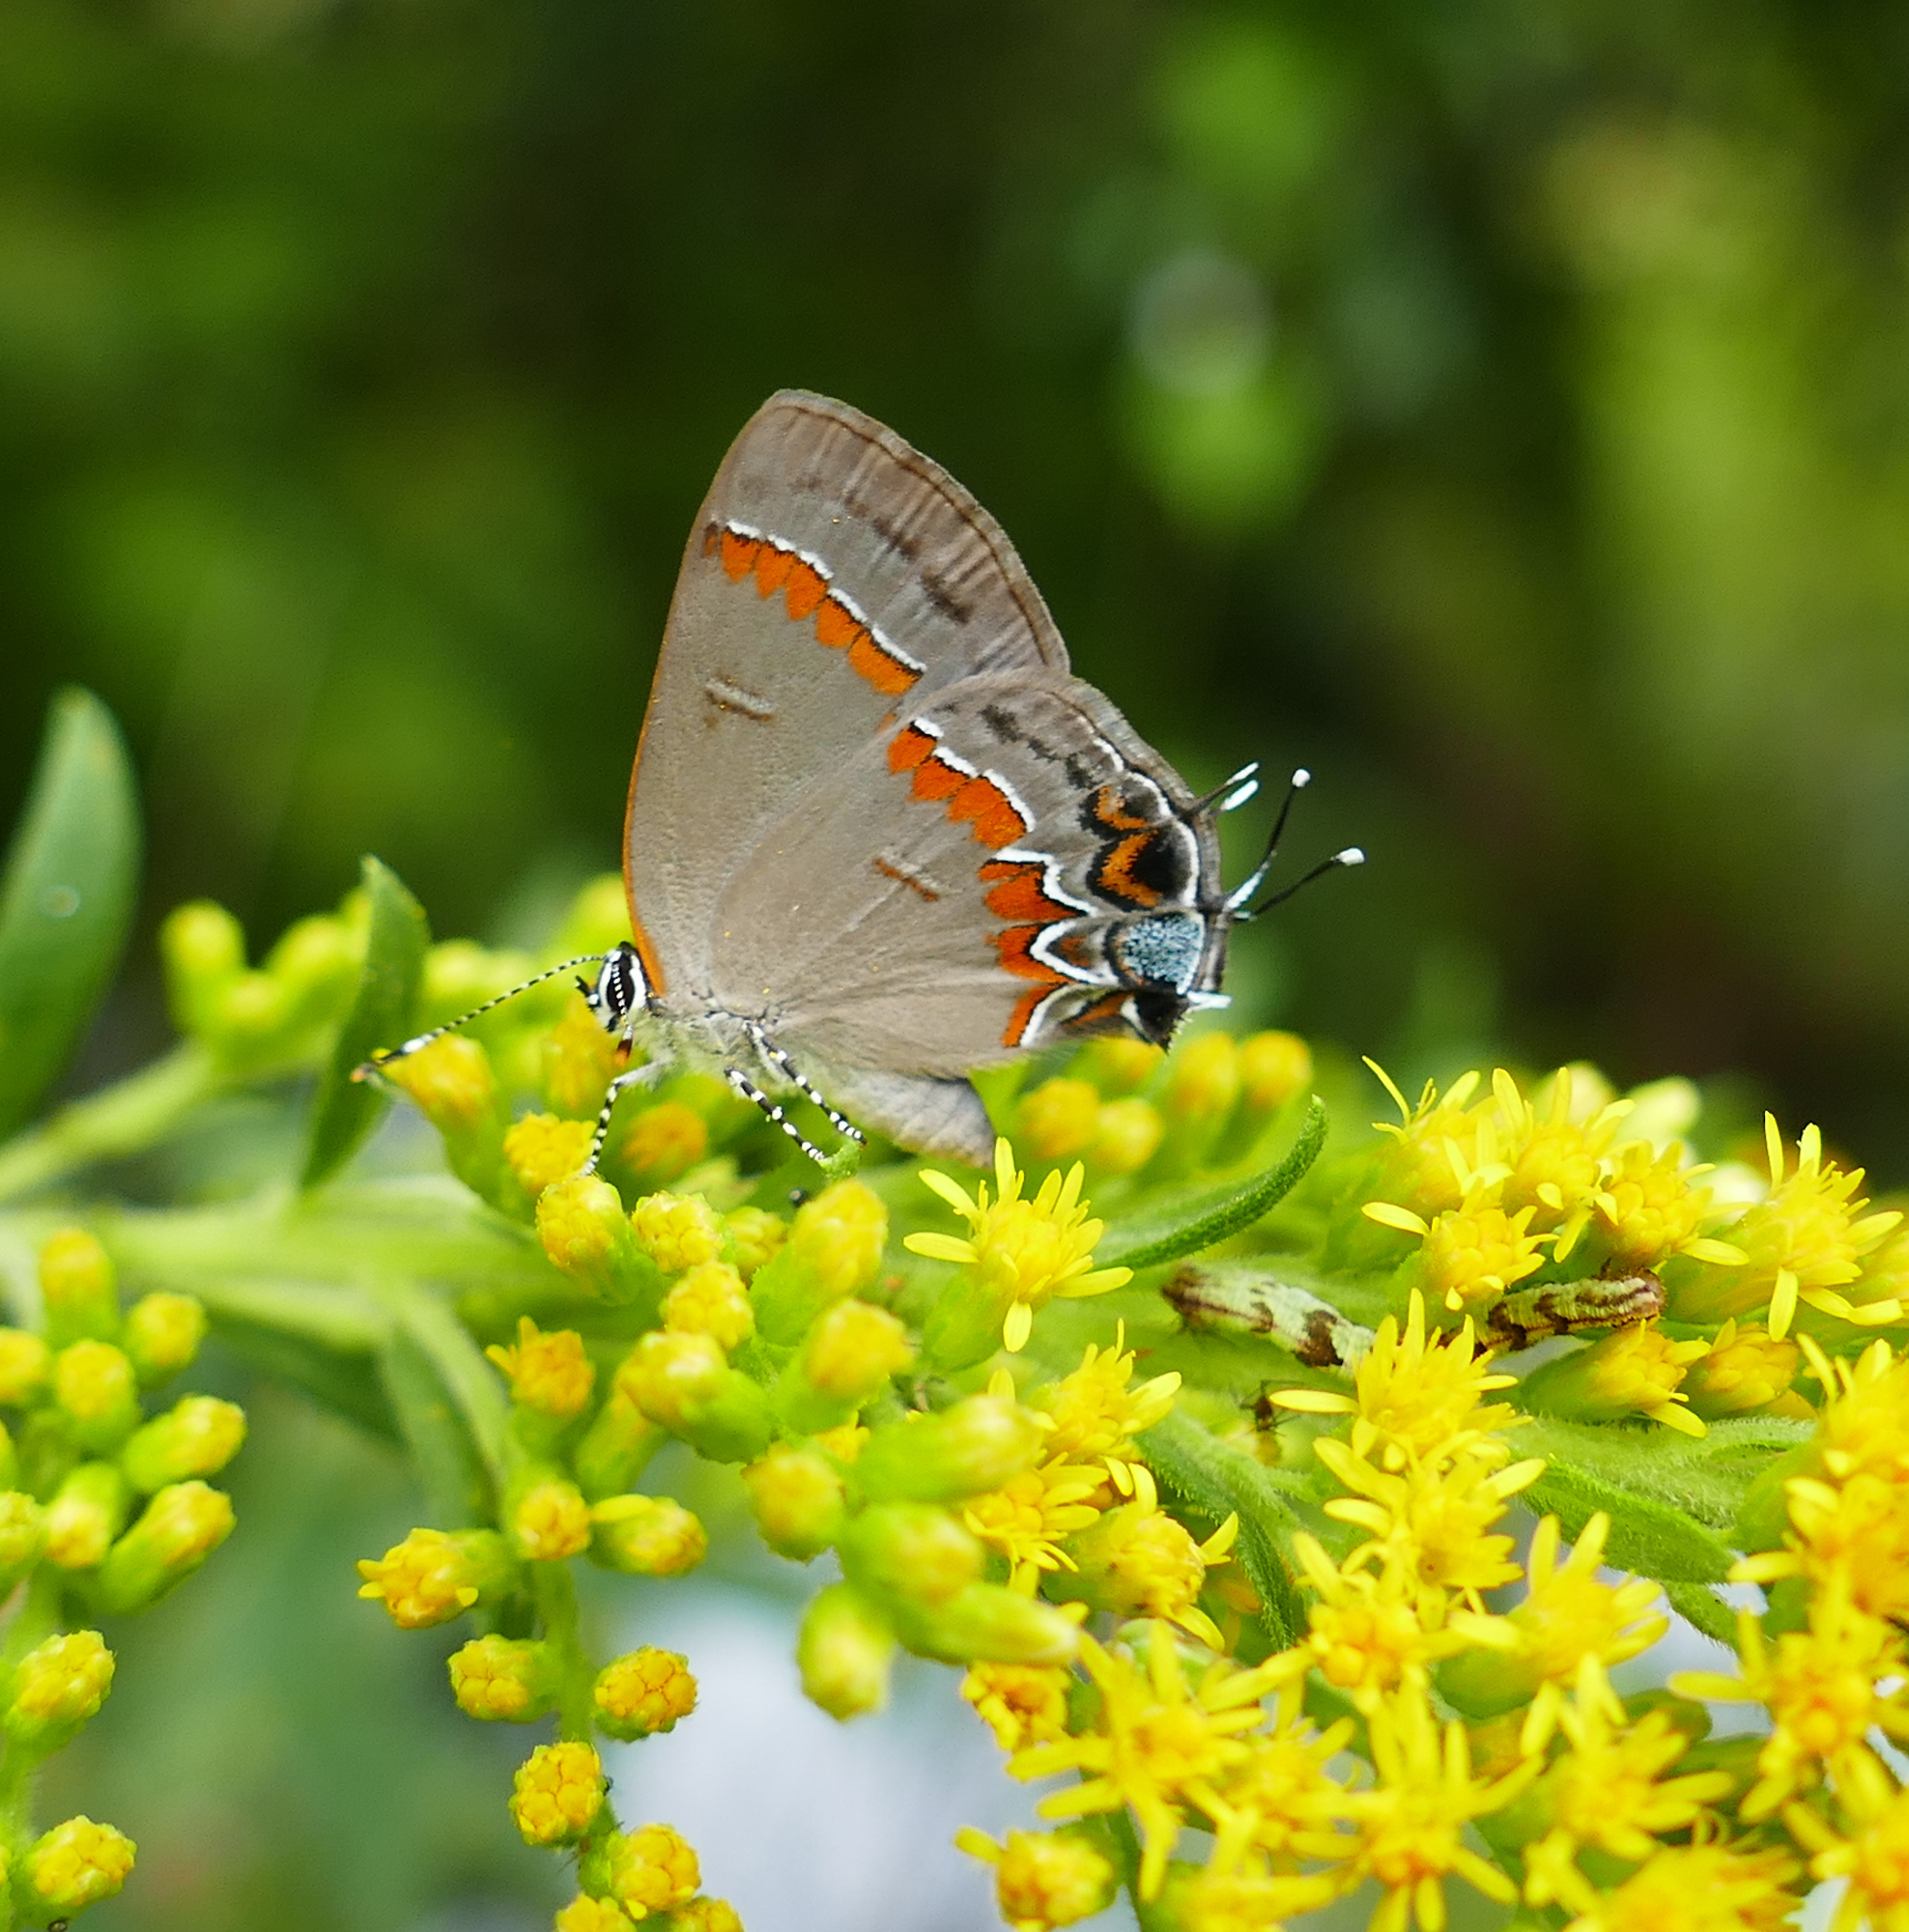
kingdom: Animalia
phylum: Arthropoda
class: Insecta
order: Lepidoptera
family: Lycaenidae
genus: Calycopis
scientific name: Calycopis cecrops
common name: Red-banded hairstreak
